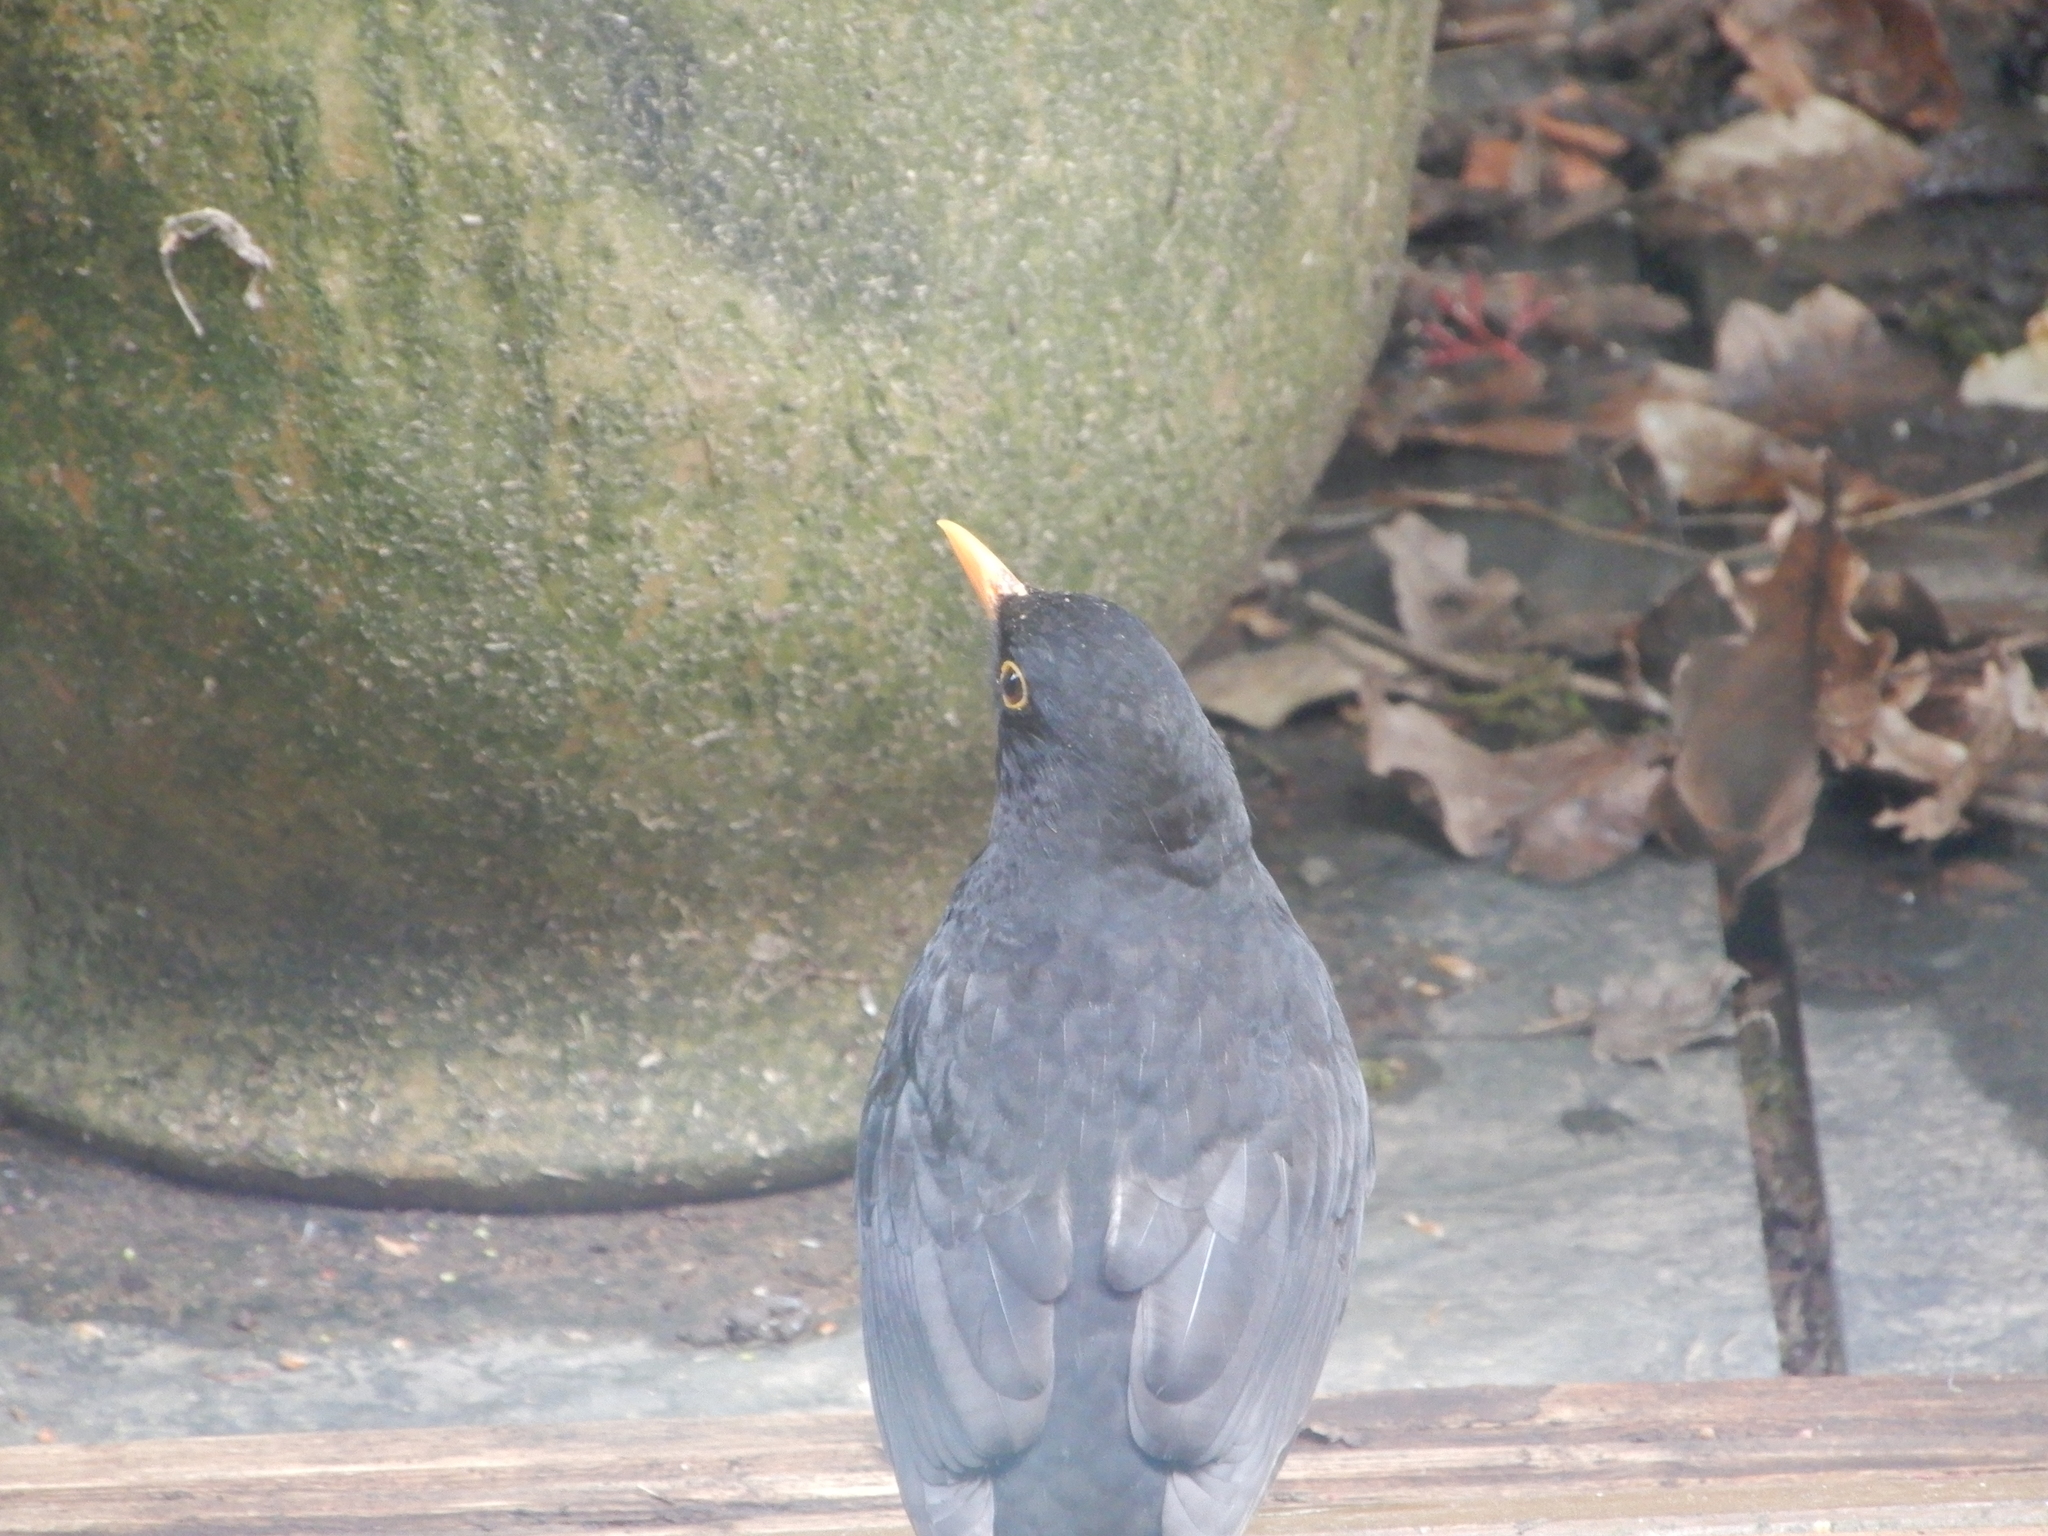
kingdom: Animalia
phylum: Chordata
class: Aves
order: Passeriformes
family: Turdidae
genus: Turdus
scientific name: Turdus merula
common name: Common blackbird
